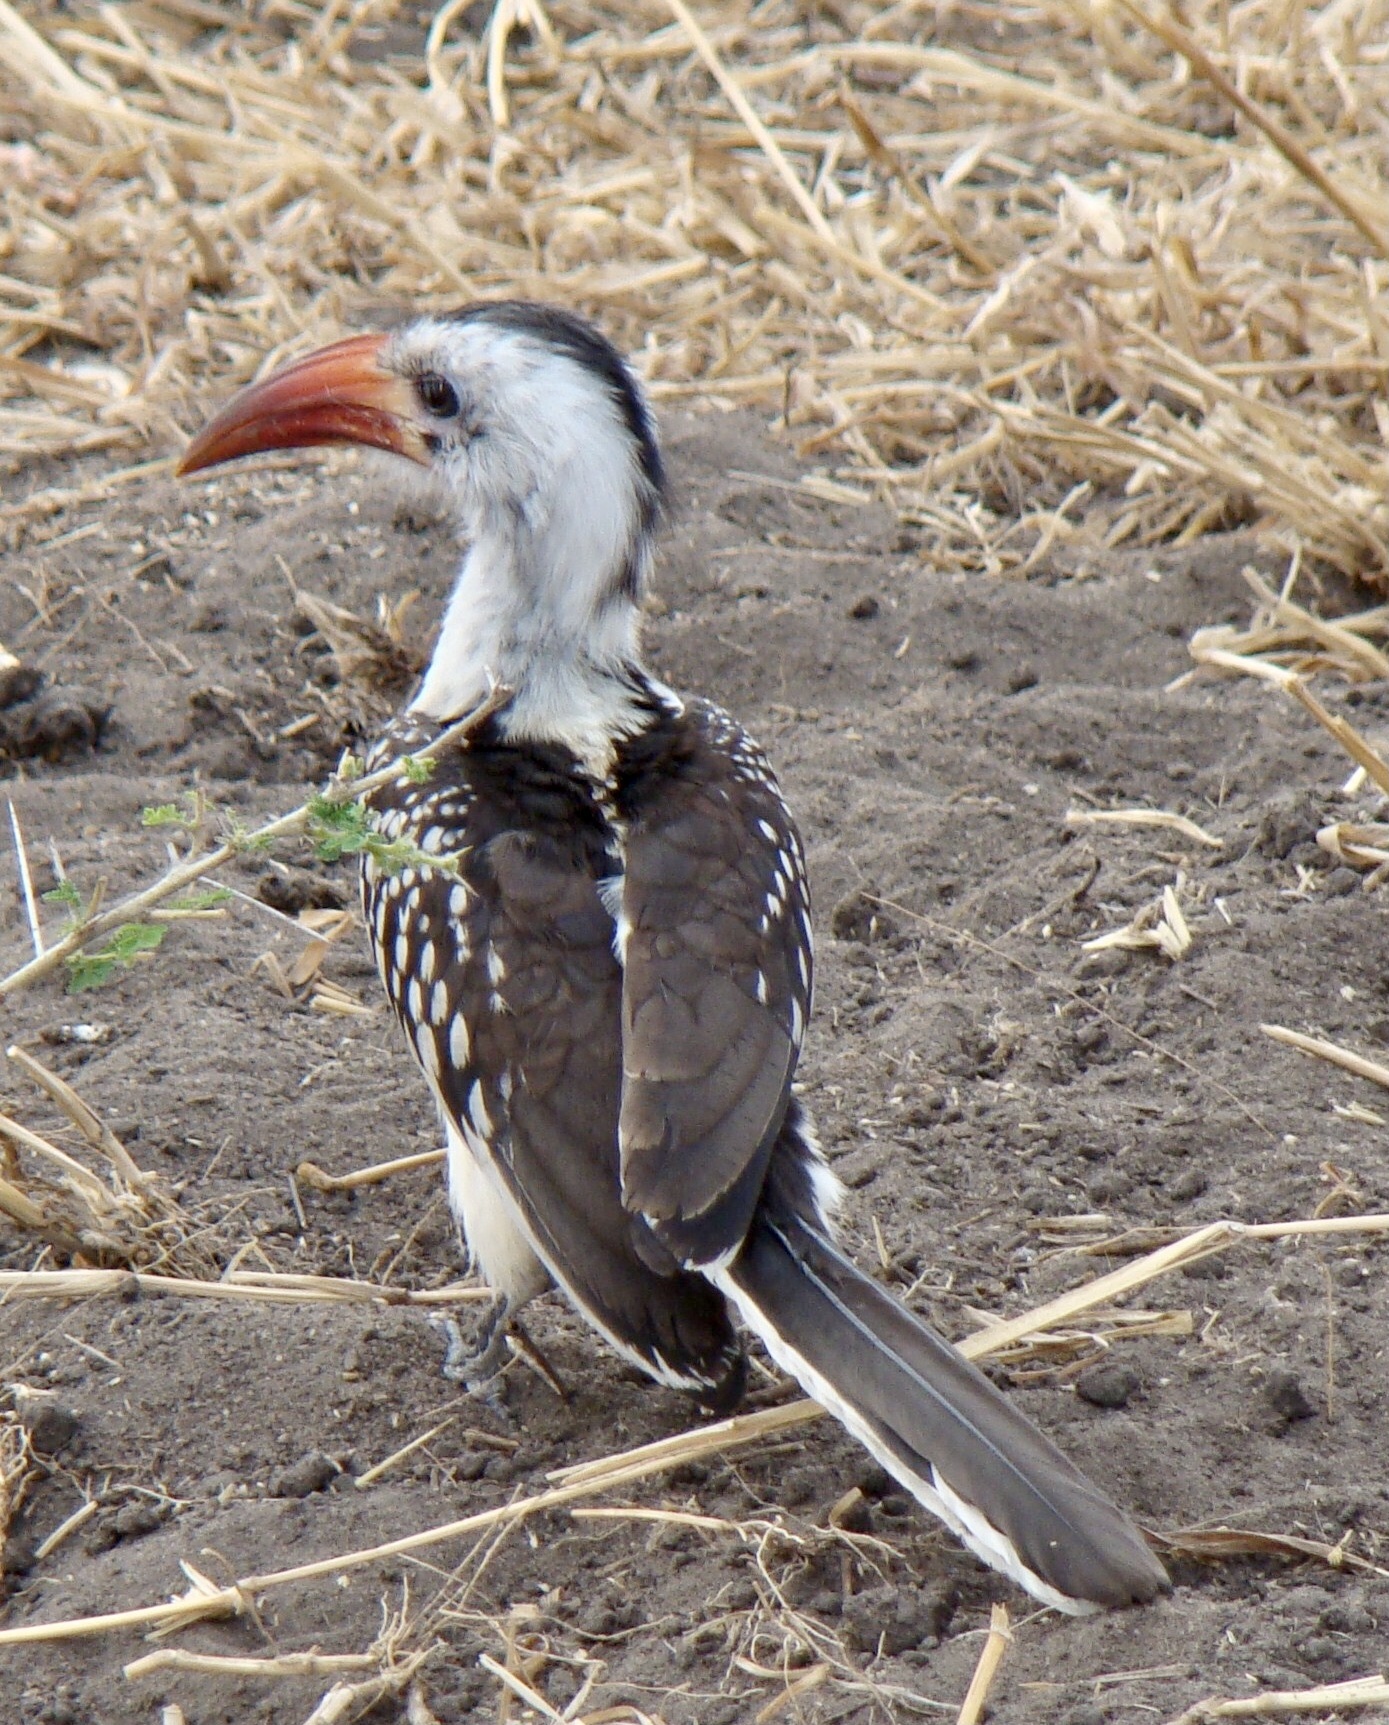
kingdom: Animalia
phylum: Chordata
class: Aves
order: Bucerotiformes
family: Bucerotidae
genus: Tockus
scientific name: Tockus erythrorhynchus
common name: Northern red-billed hornbill
